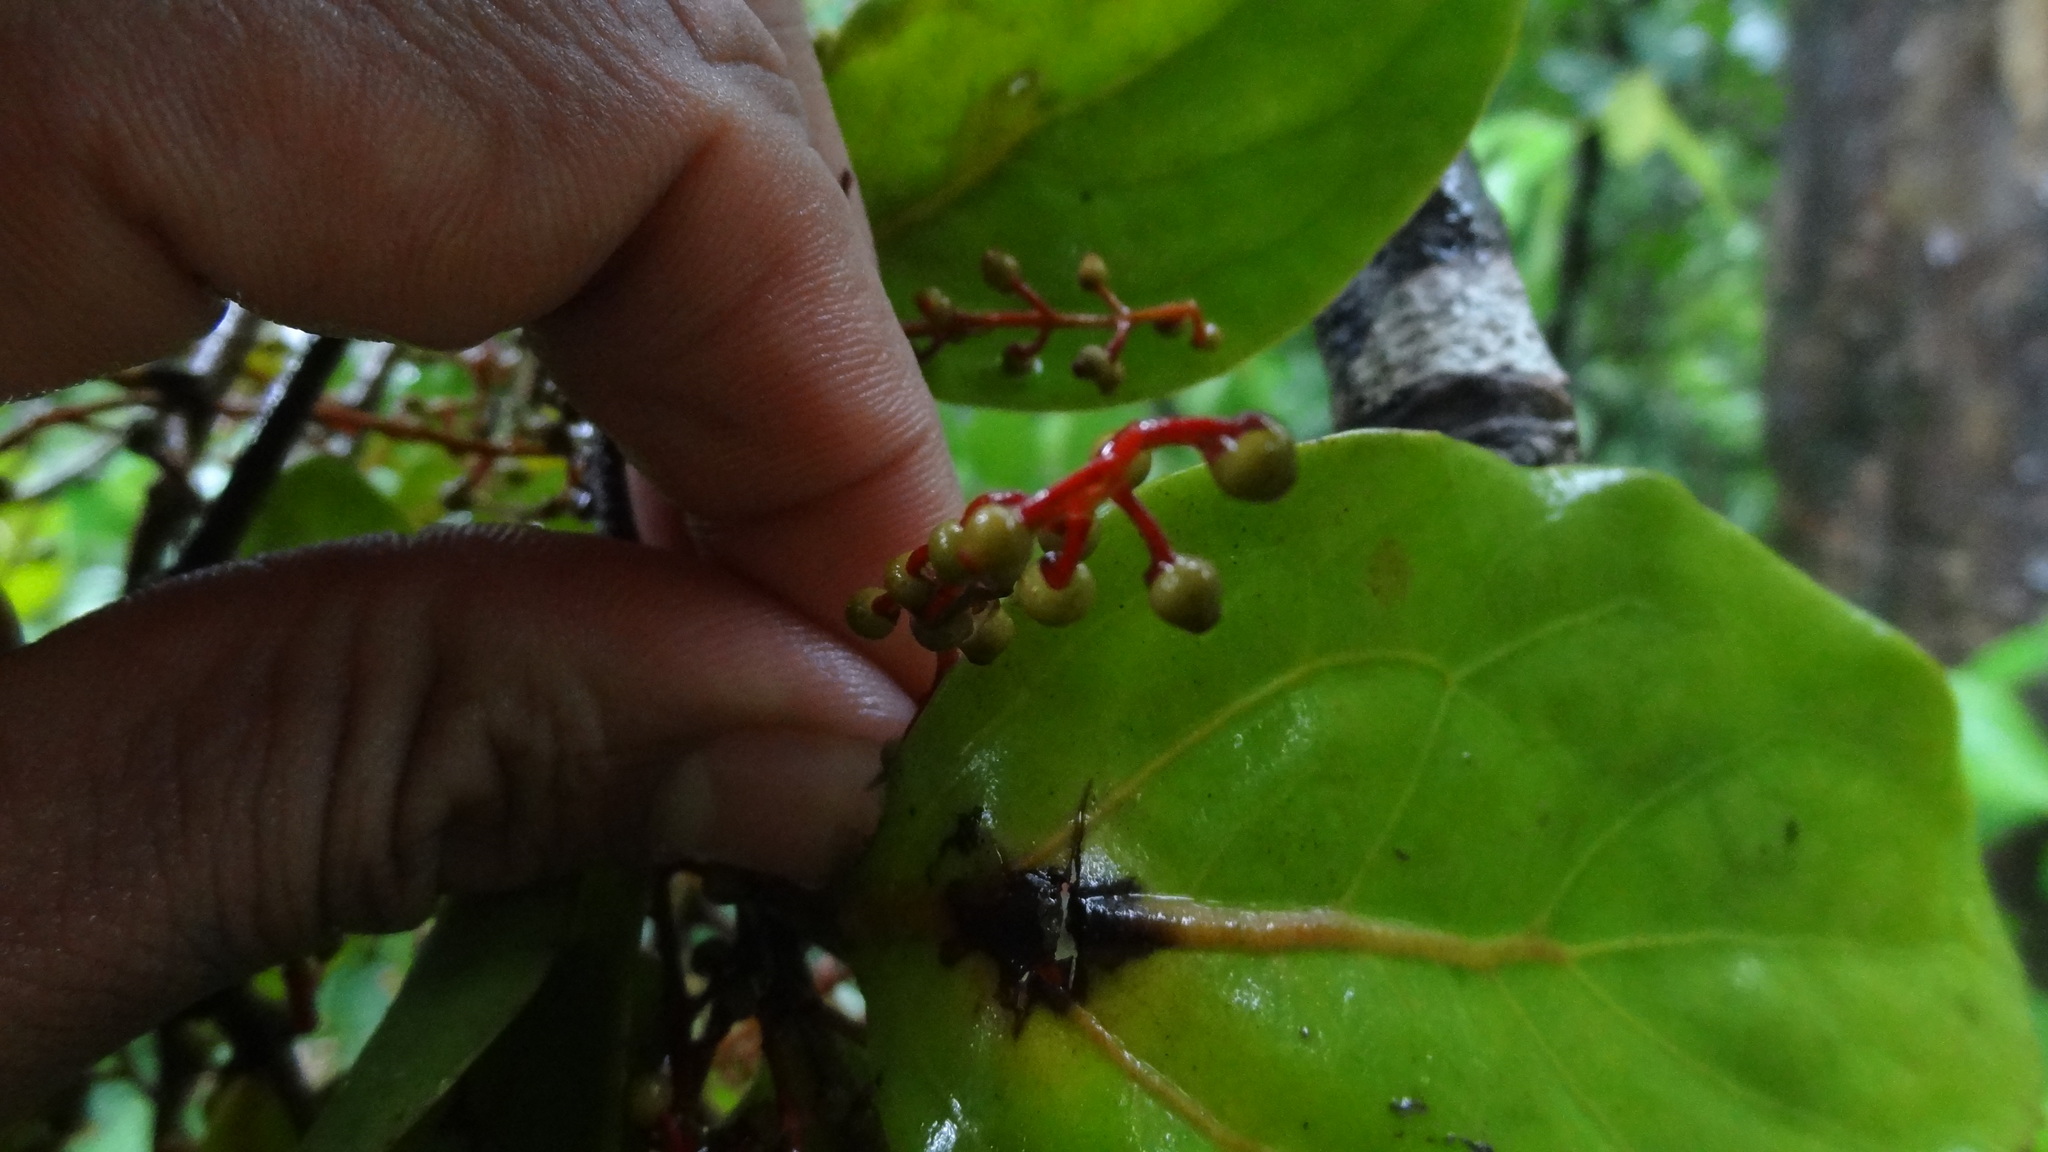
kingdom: Plantae
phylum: Tracheophyta
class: Magnoliopsida
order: Santalales
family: Loranthaceae
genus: Helixanthera
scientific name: Helixanthera wallichiana
